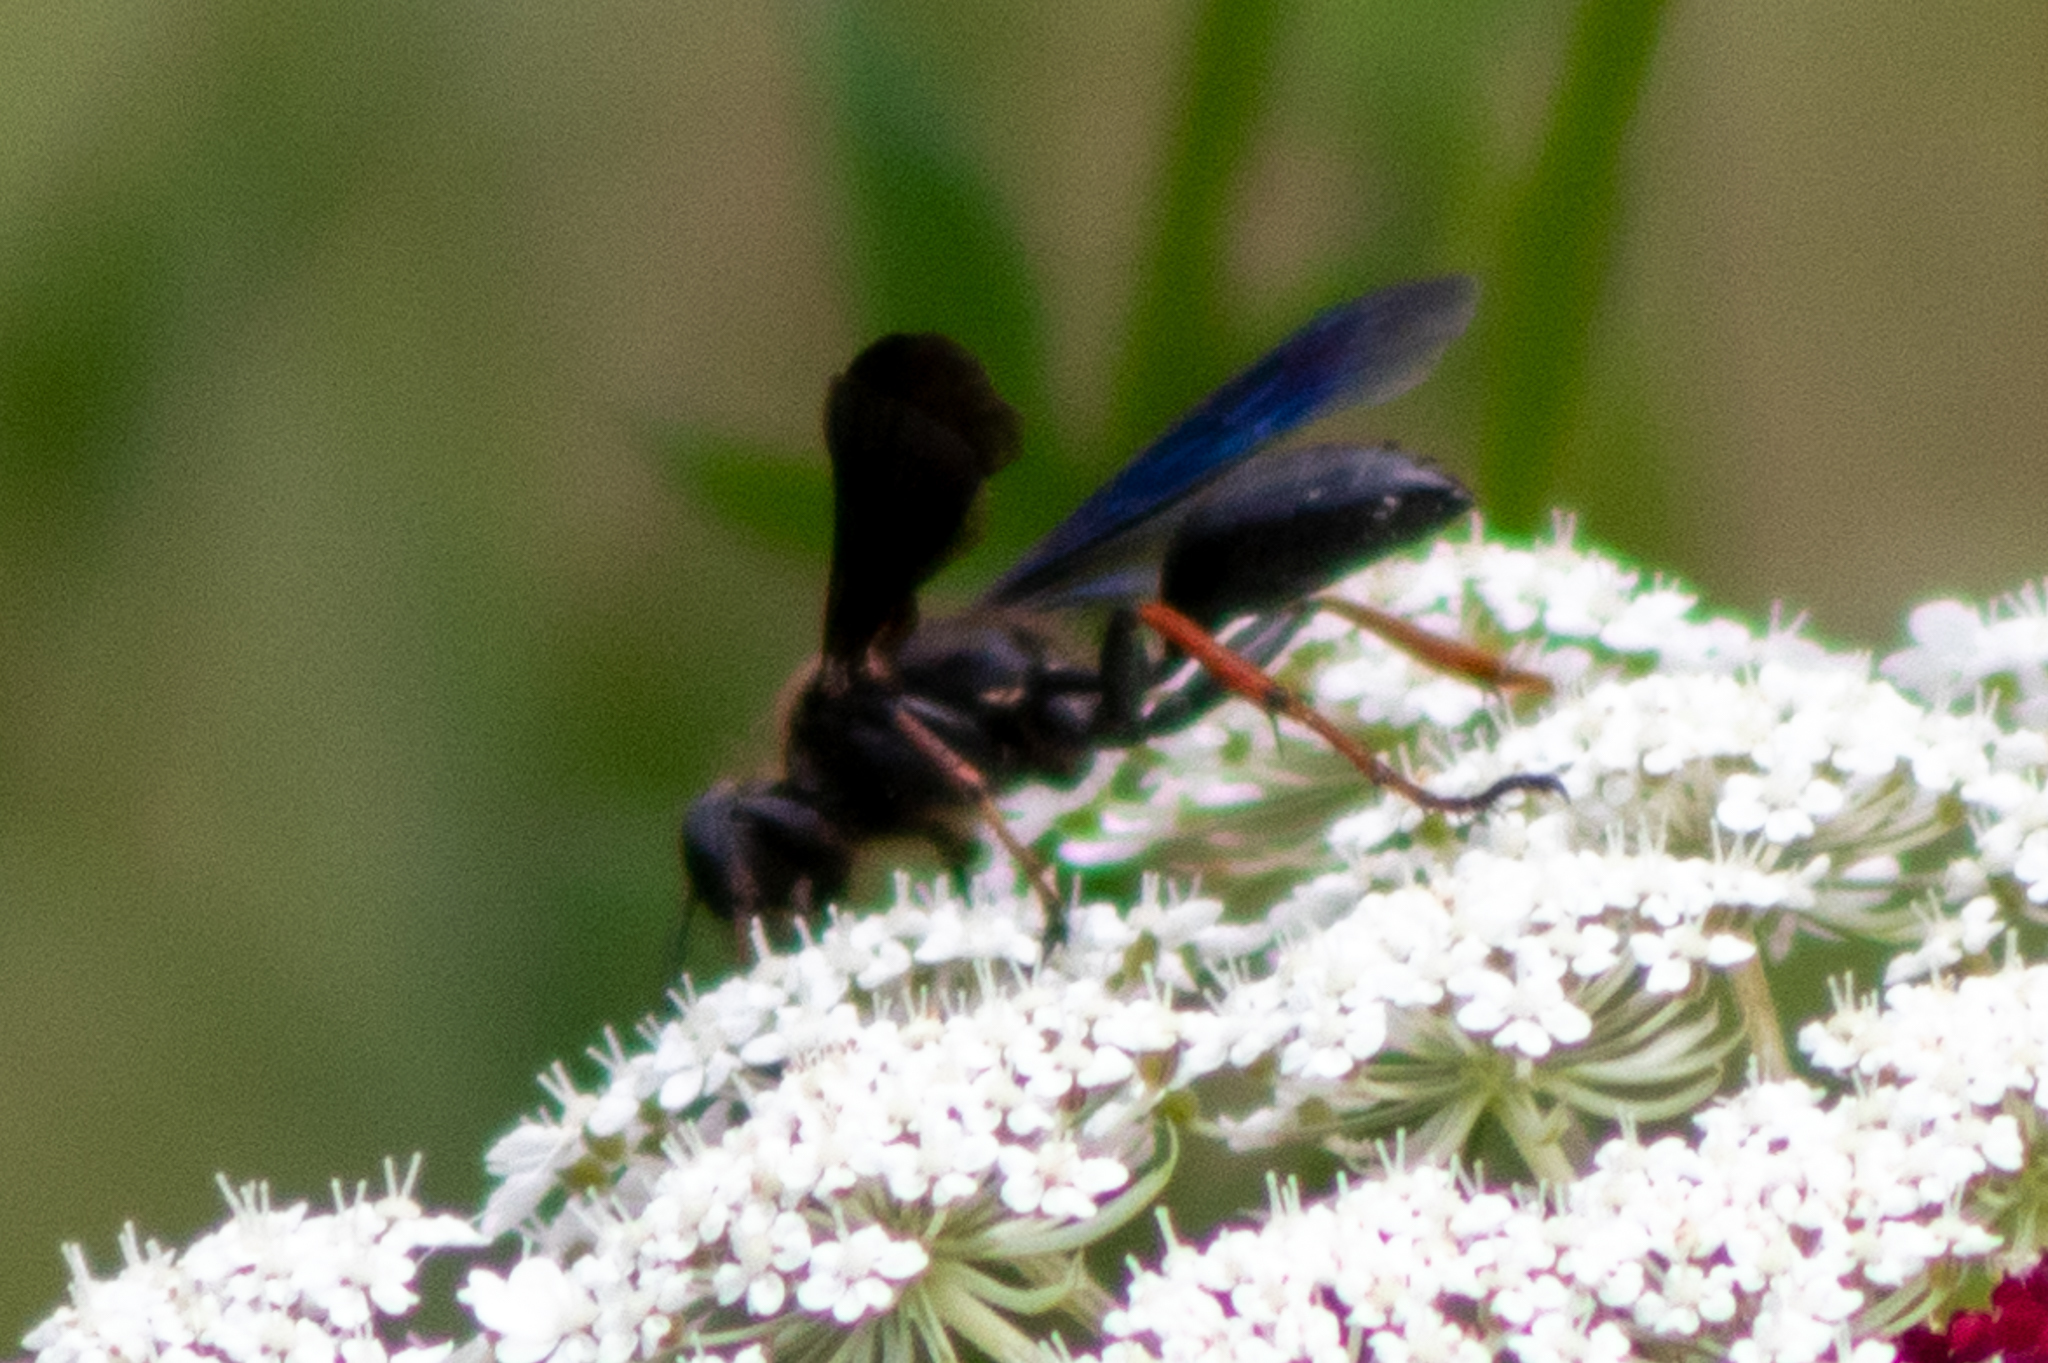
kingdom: Animalia
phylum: Arthropoda
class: Insecta
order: Hymenoptera
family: Sphecidae
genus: Isodontia
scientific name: Isodontia auripes
